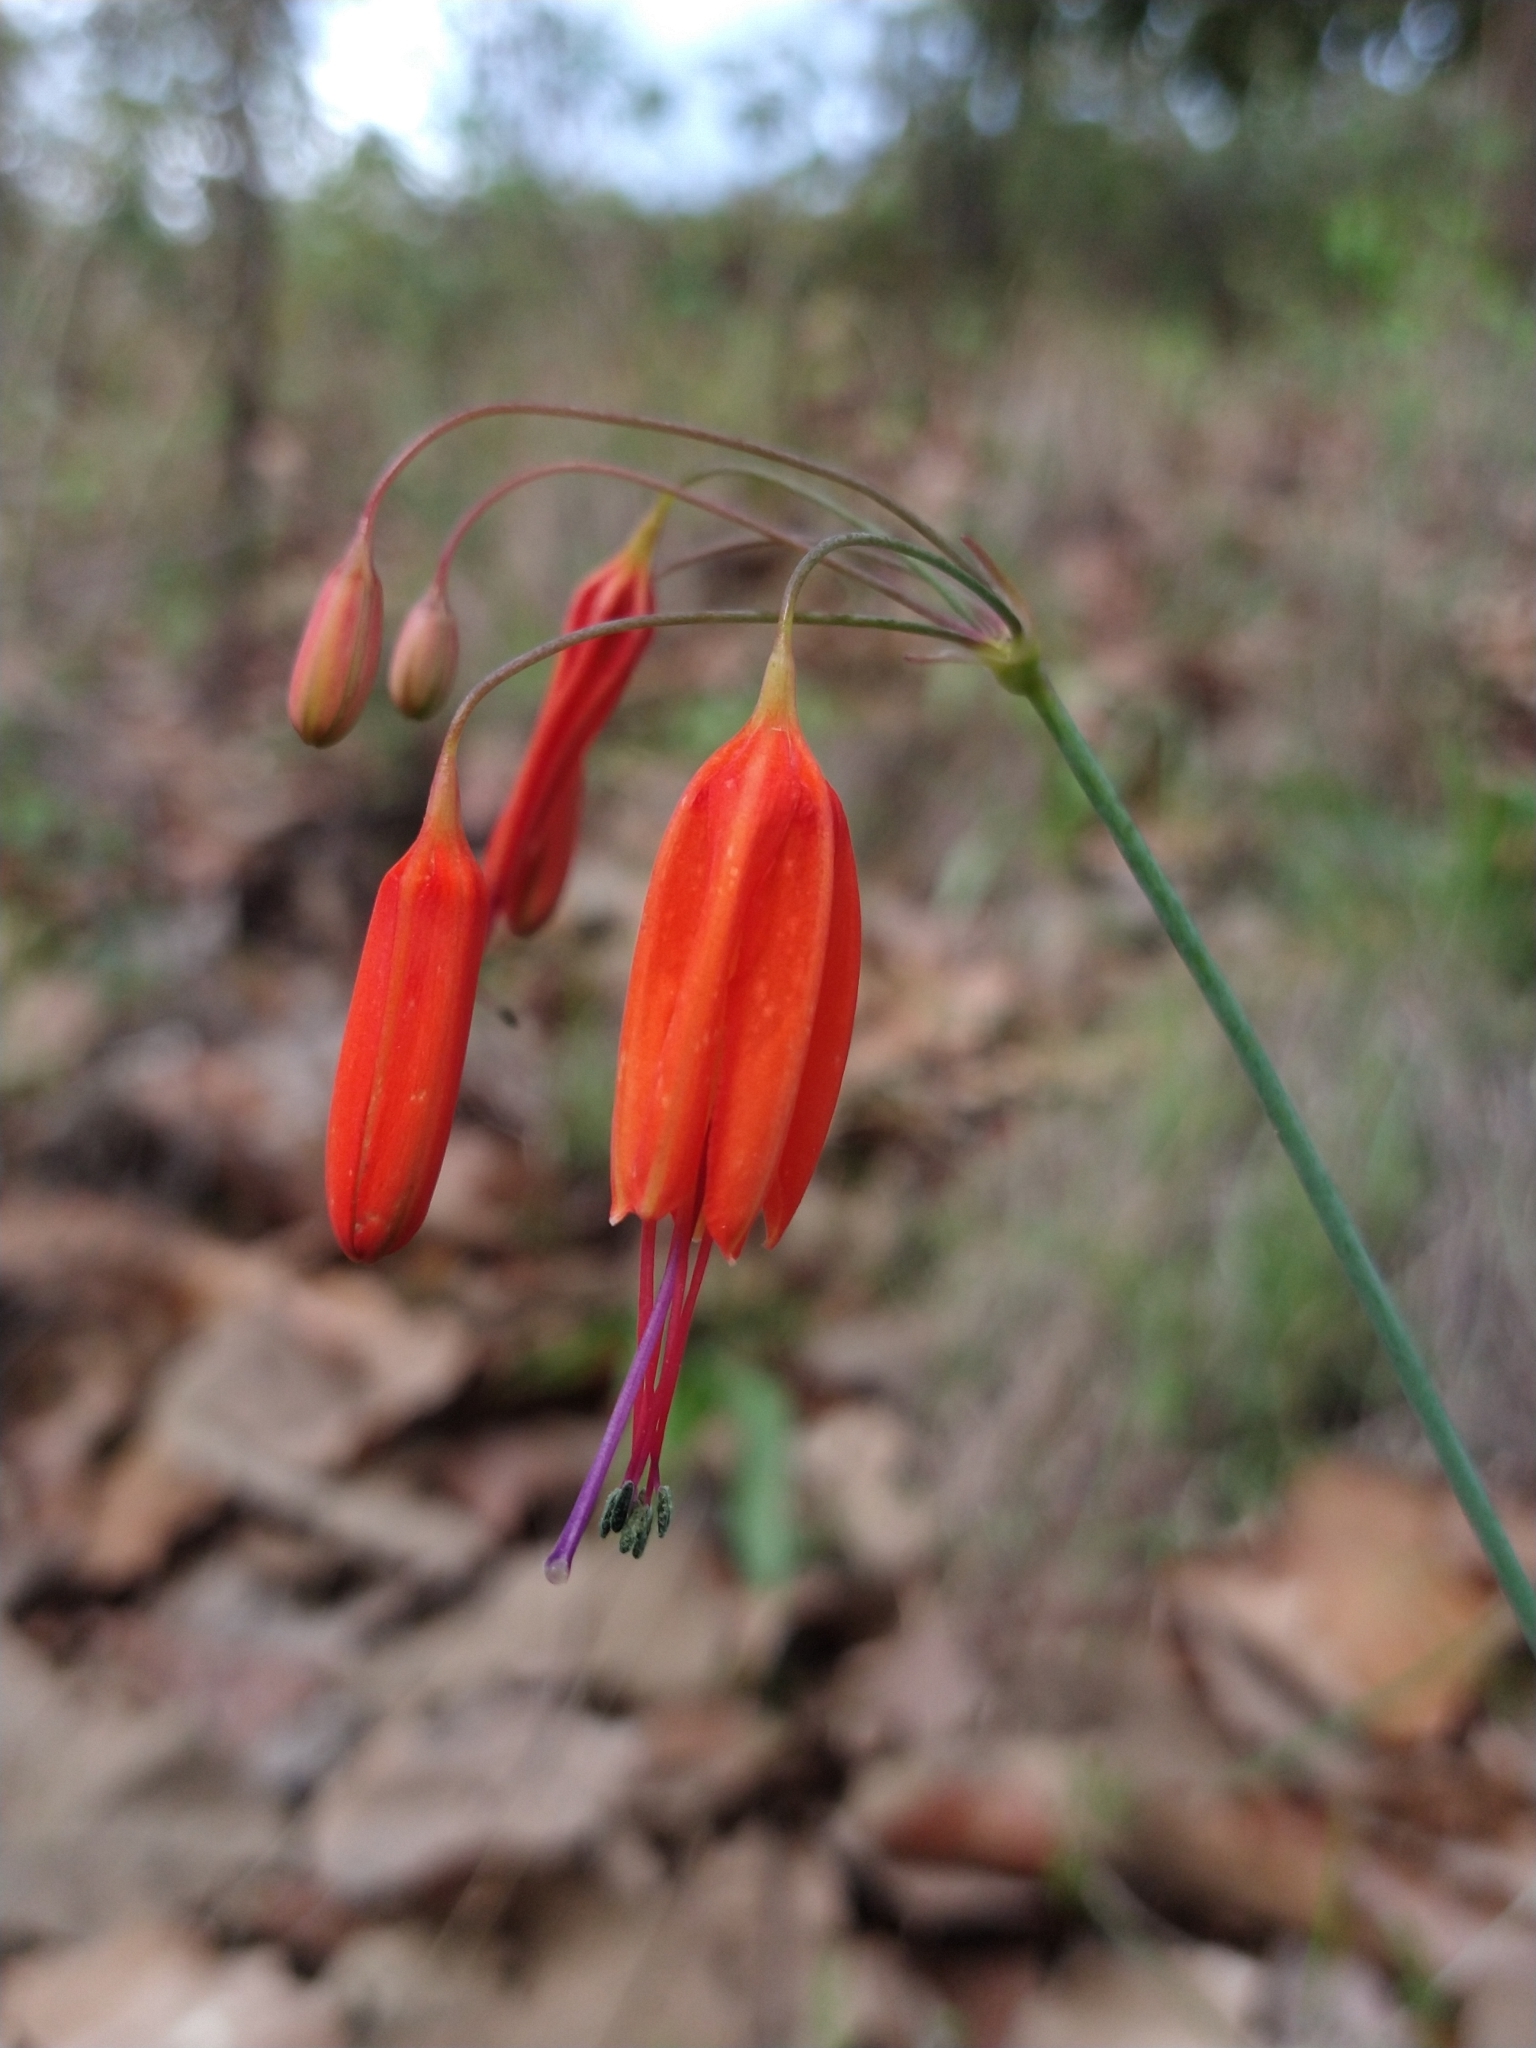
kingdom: Plantae
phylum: Tracheophyta
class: Liliopsida
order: Asparagales
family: Asparagaceae
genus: Bessera
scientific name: Bessera elegans
